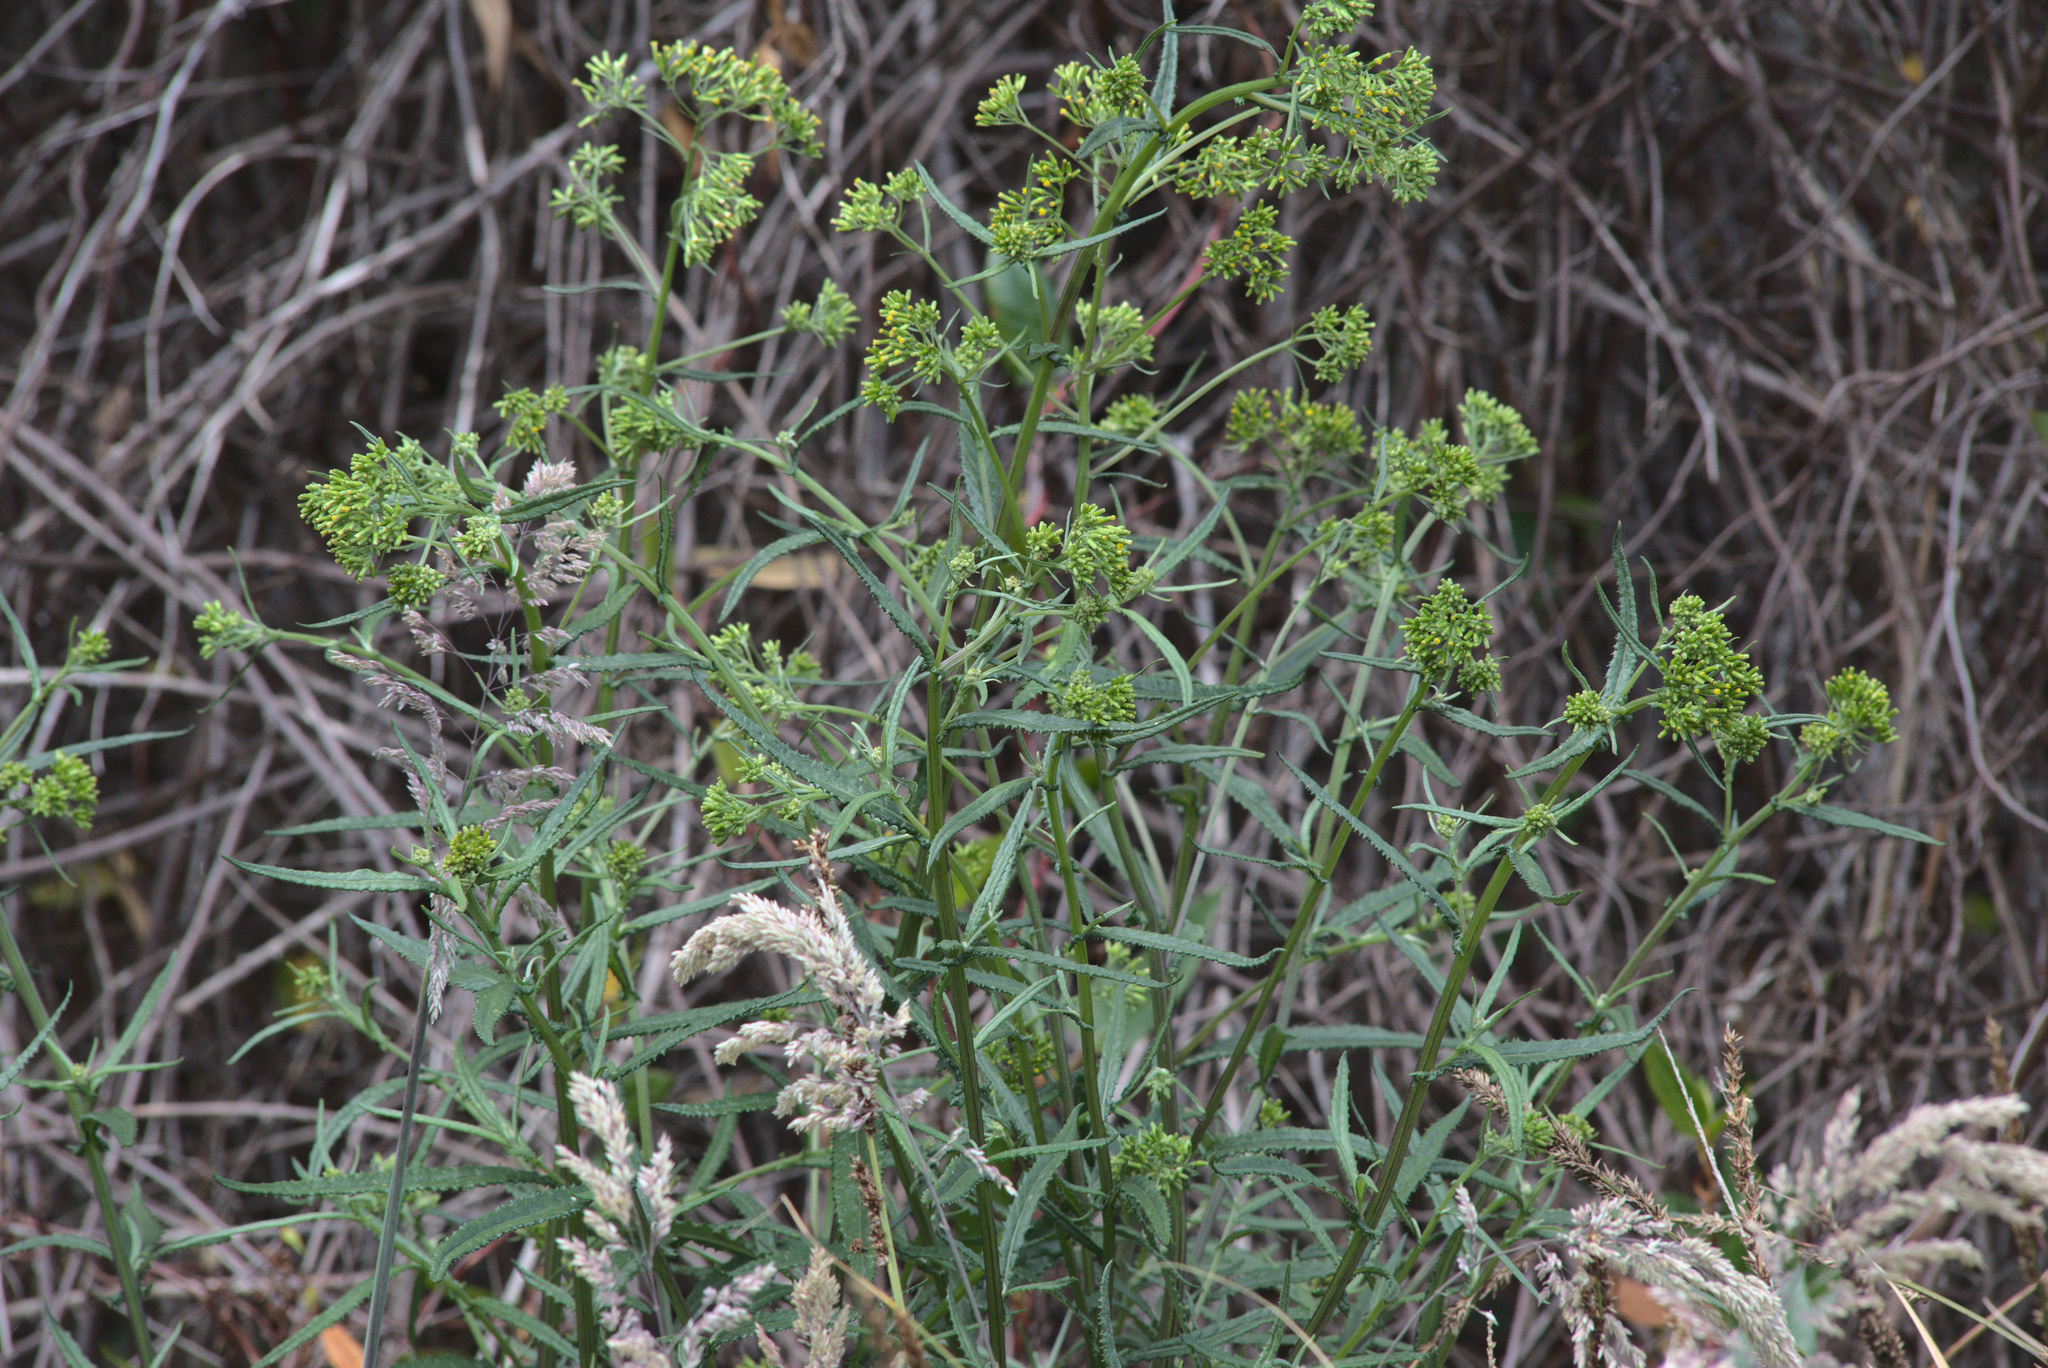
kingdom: Plantae
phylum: Tracheophyta
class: Magnoliopsida
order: Asterales
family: Asteraceae
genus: Senecio
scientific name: Senecio minimus
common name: Toothed fireweed
